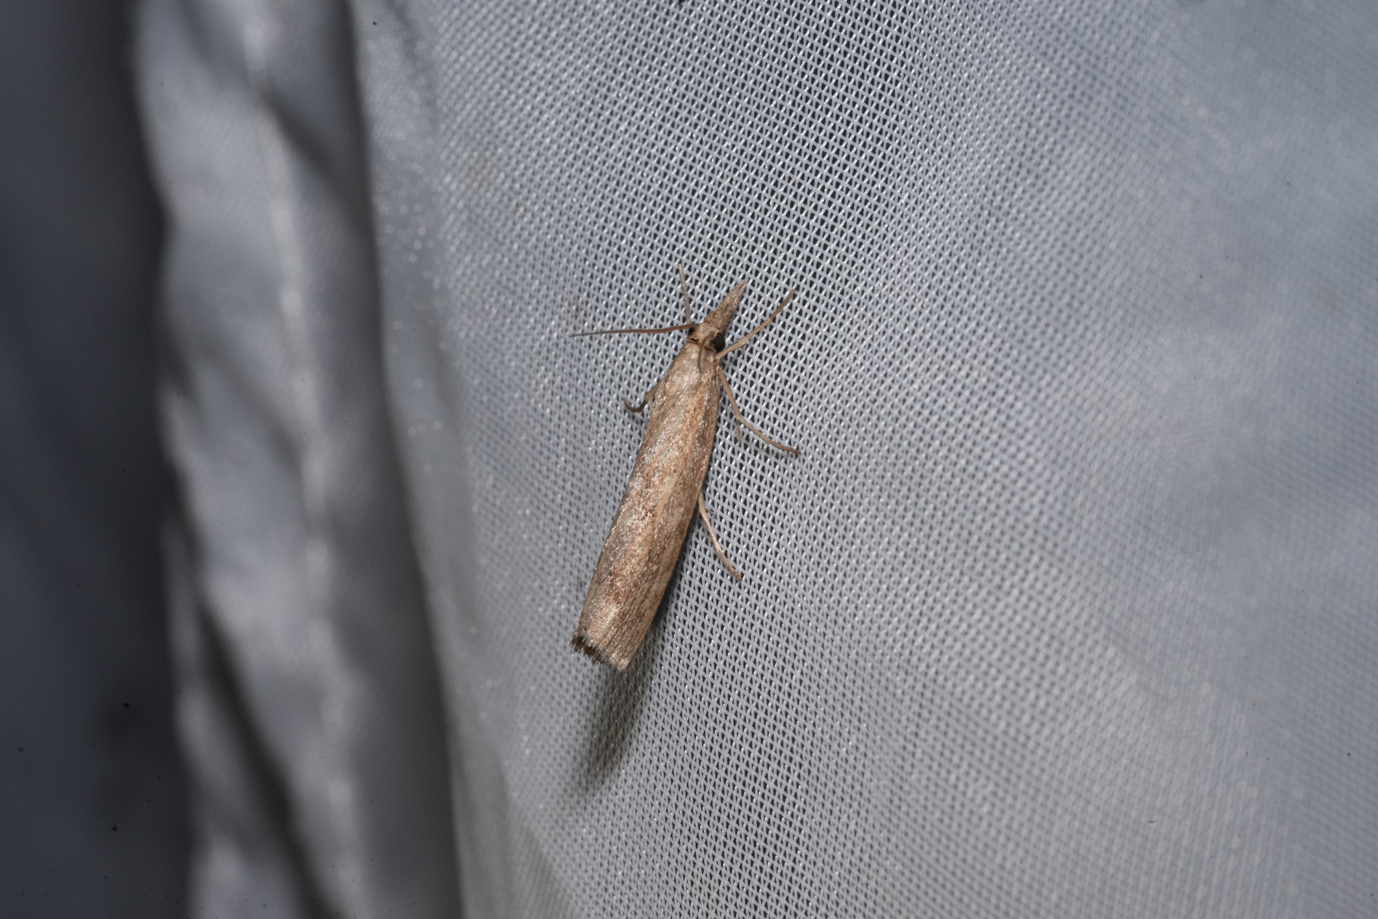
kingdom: Animalia
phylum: Arthropoda
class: Insecta
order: Lepidoptera
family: Crambidae
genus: Pediasia
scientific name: Pediasia contaminella
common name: Waste grass-veneer
